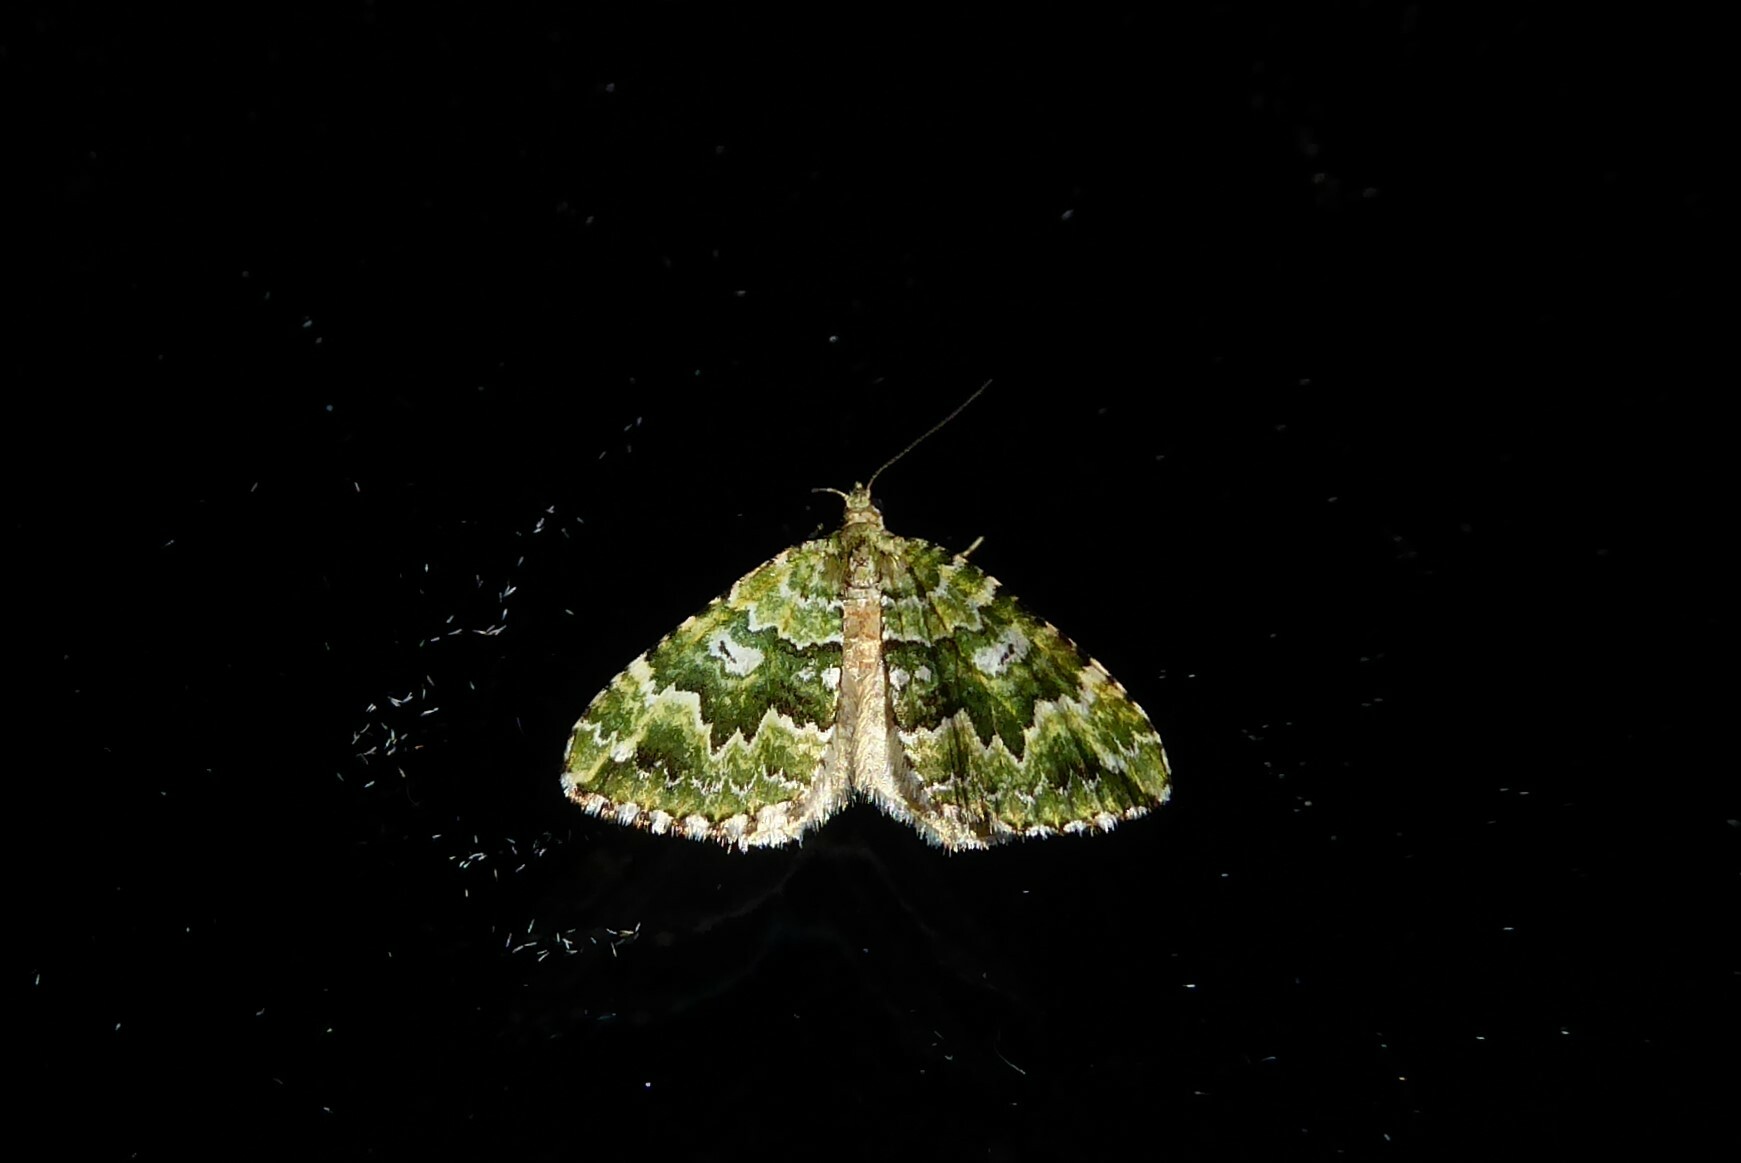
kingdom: Animalia
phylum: Arthropoda
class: Insecta
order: Lepidoptera
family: Geometridae
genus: Asaphodes
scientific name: Asaphodes beata
